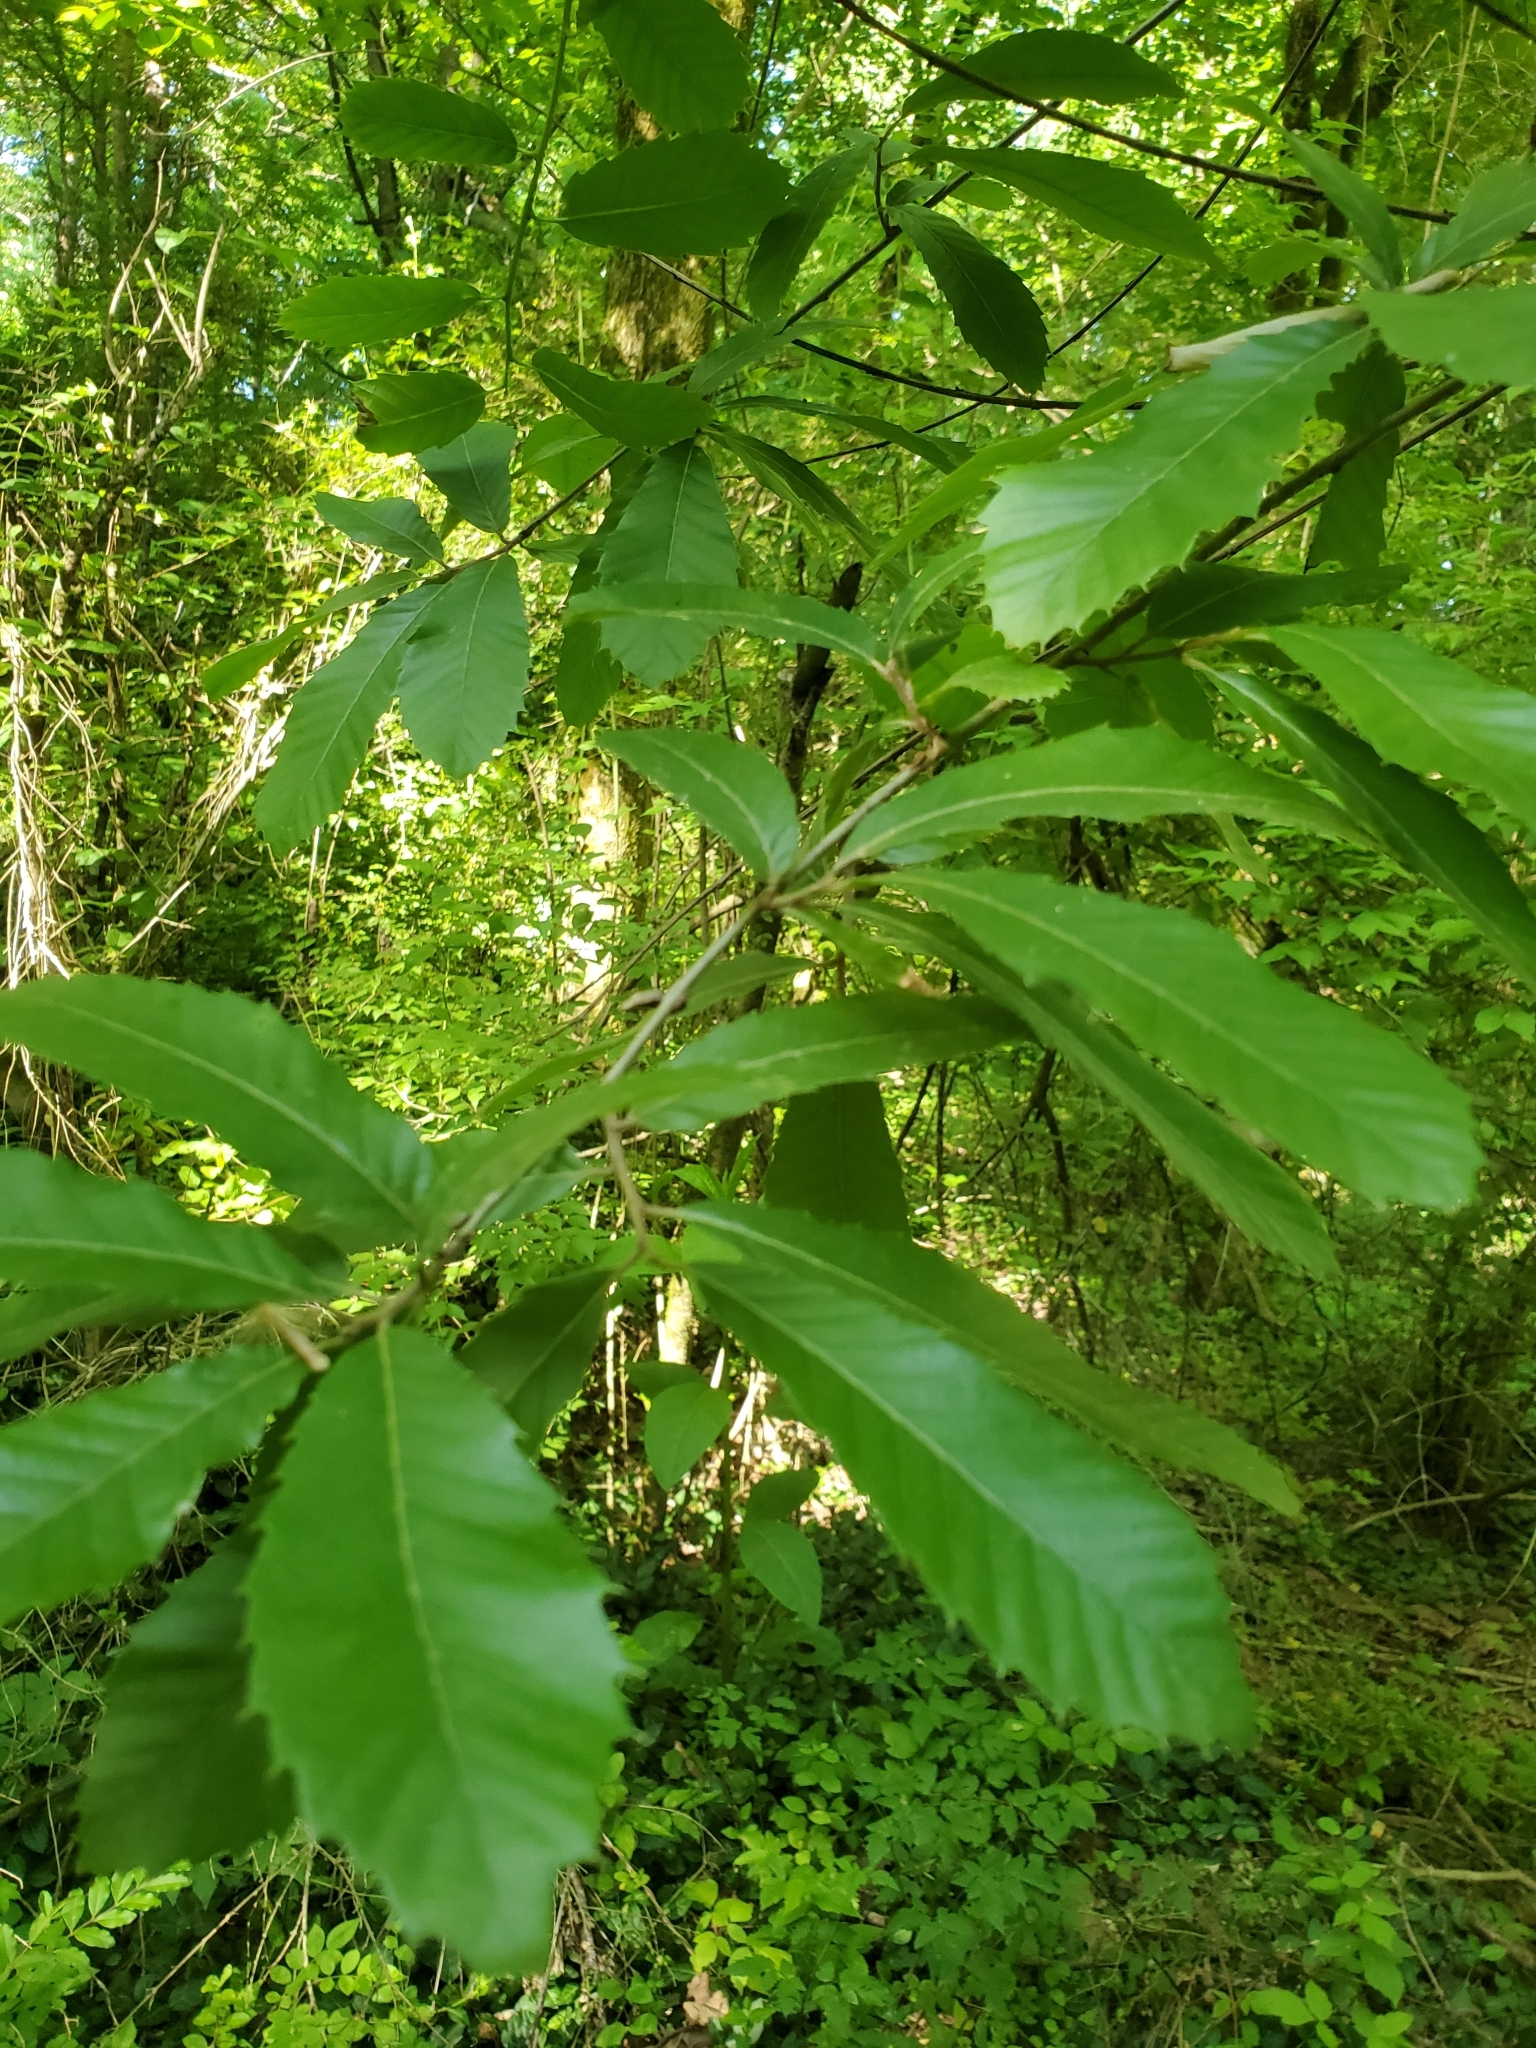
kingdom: Plantae
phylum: Tracheophyta
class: Magnoliopsida
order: Fagales
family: Fagaceae
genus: Castanea
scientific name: Castanea pumila
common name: Chinkapin
